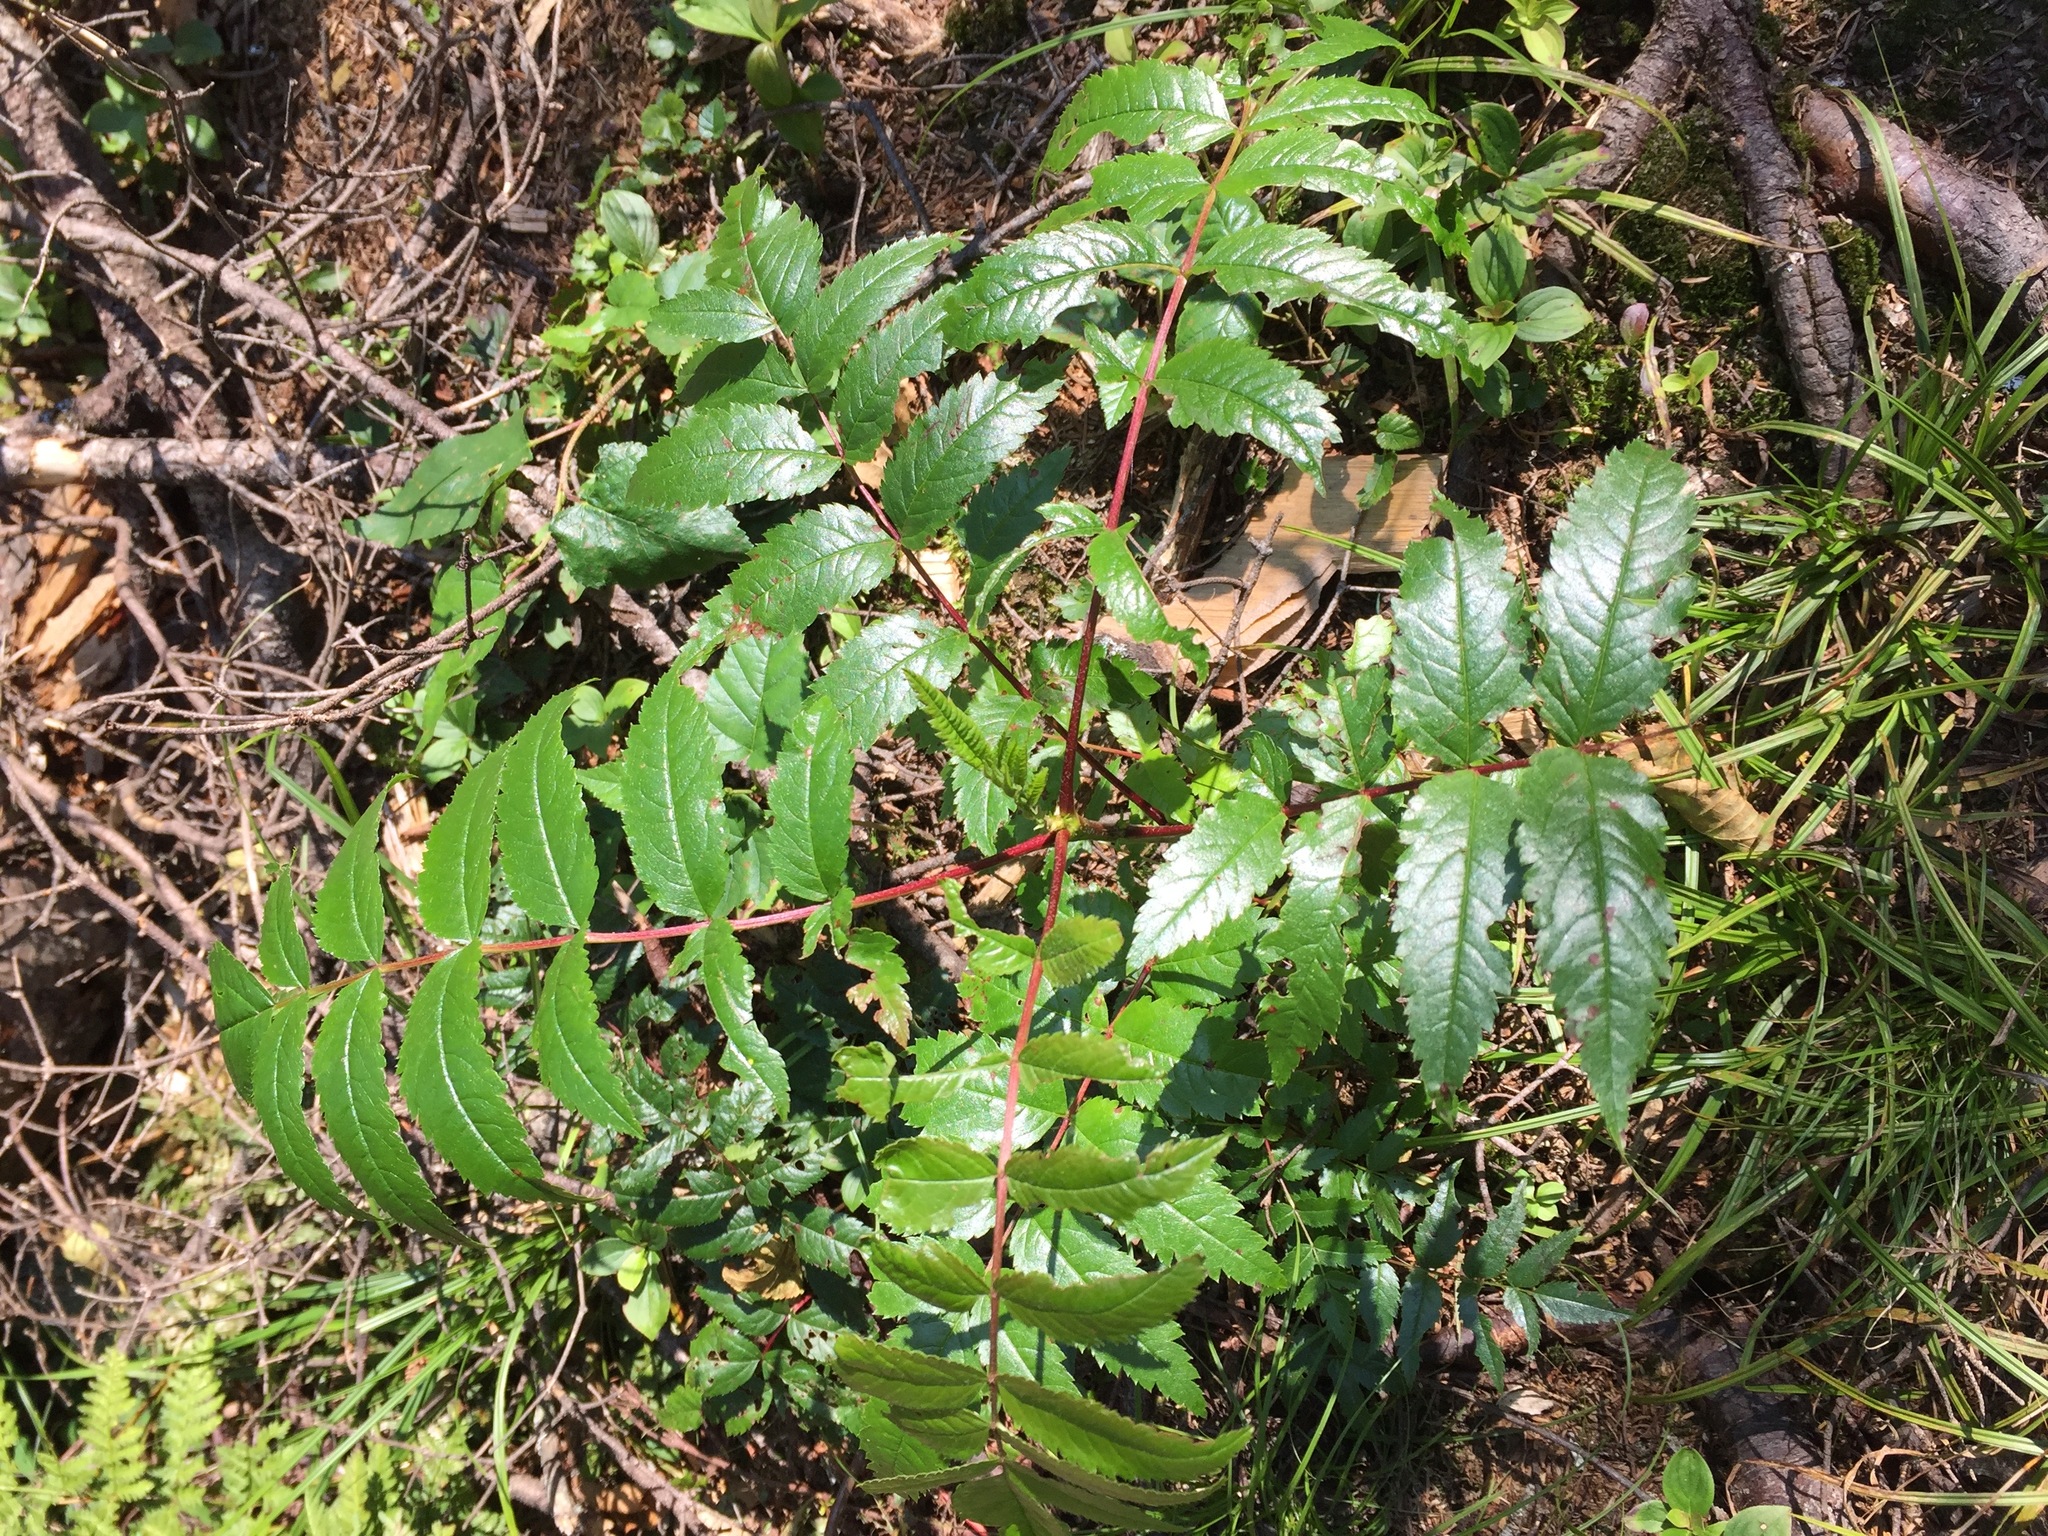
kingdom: Plantae
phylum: Tracheophyta
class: Magnoliopsida
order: Rosales
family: Rosaceae
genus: Sorbus
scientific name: Sorbus americana
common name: American mountain-ash
